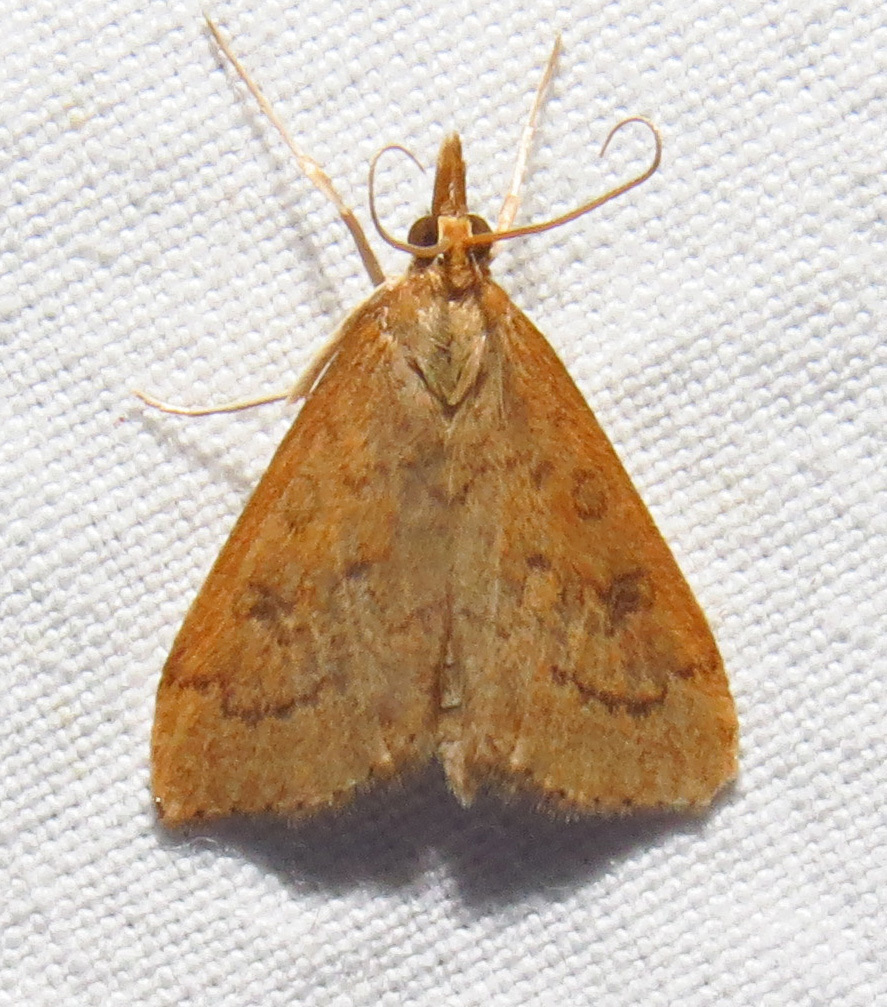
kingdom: Animalia
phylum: Arthropoda
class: Insecta
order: Lepidoptera
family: Crambidae
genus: Udea
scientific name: Udea rubigalis
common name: Celery leaftier moth
